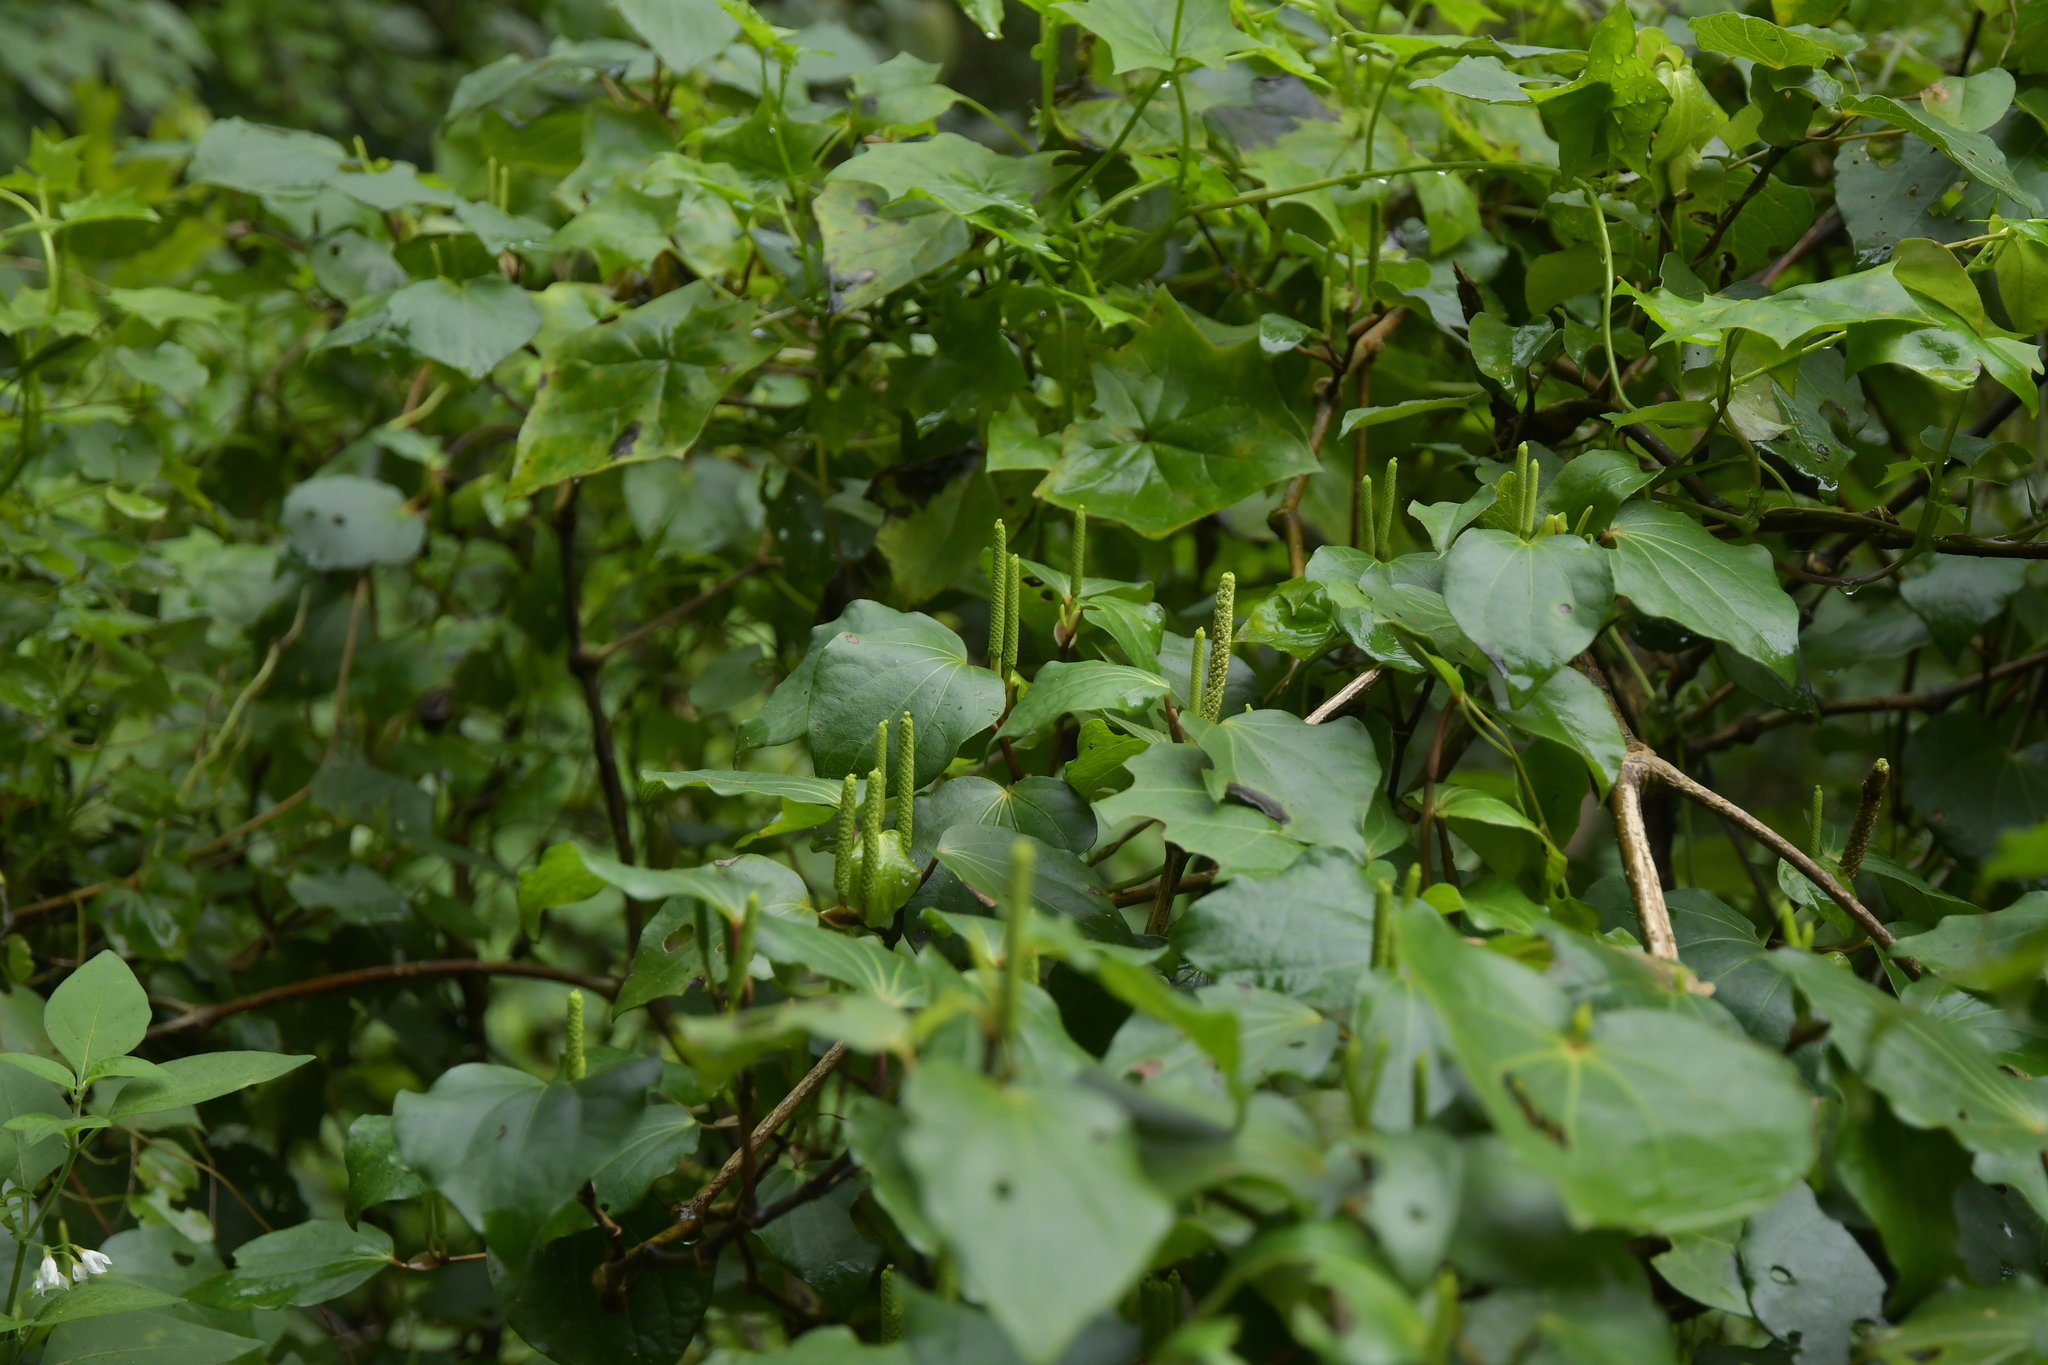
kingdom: Plantae
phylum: Tracheophyta
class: Magnoliopsida
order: Piperales
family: Piperaceae
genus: Macropiper
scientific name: Macropiper excelsum
